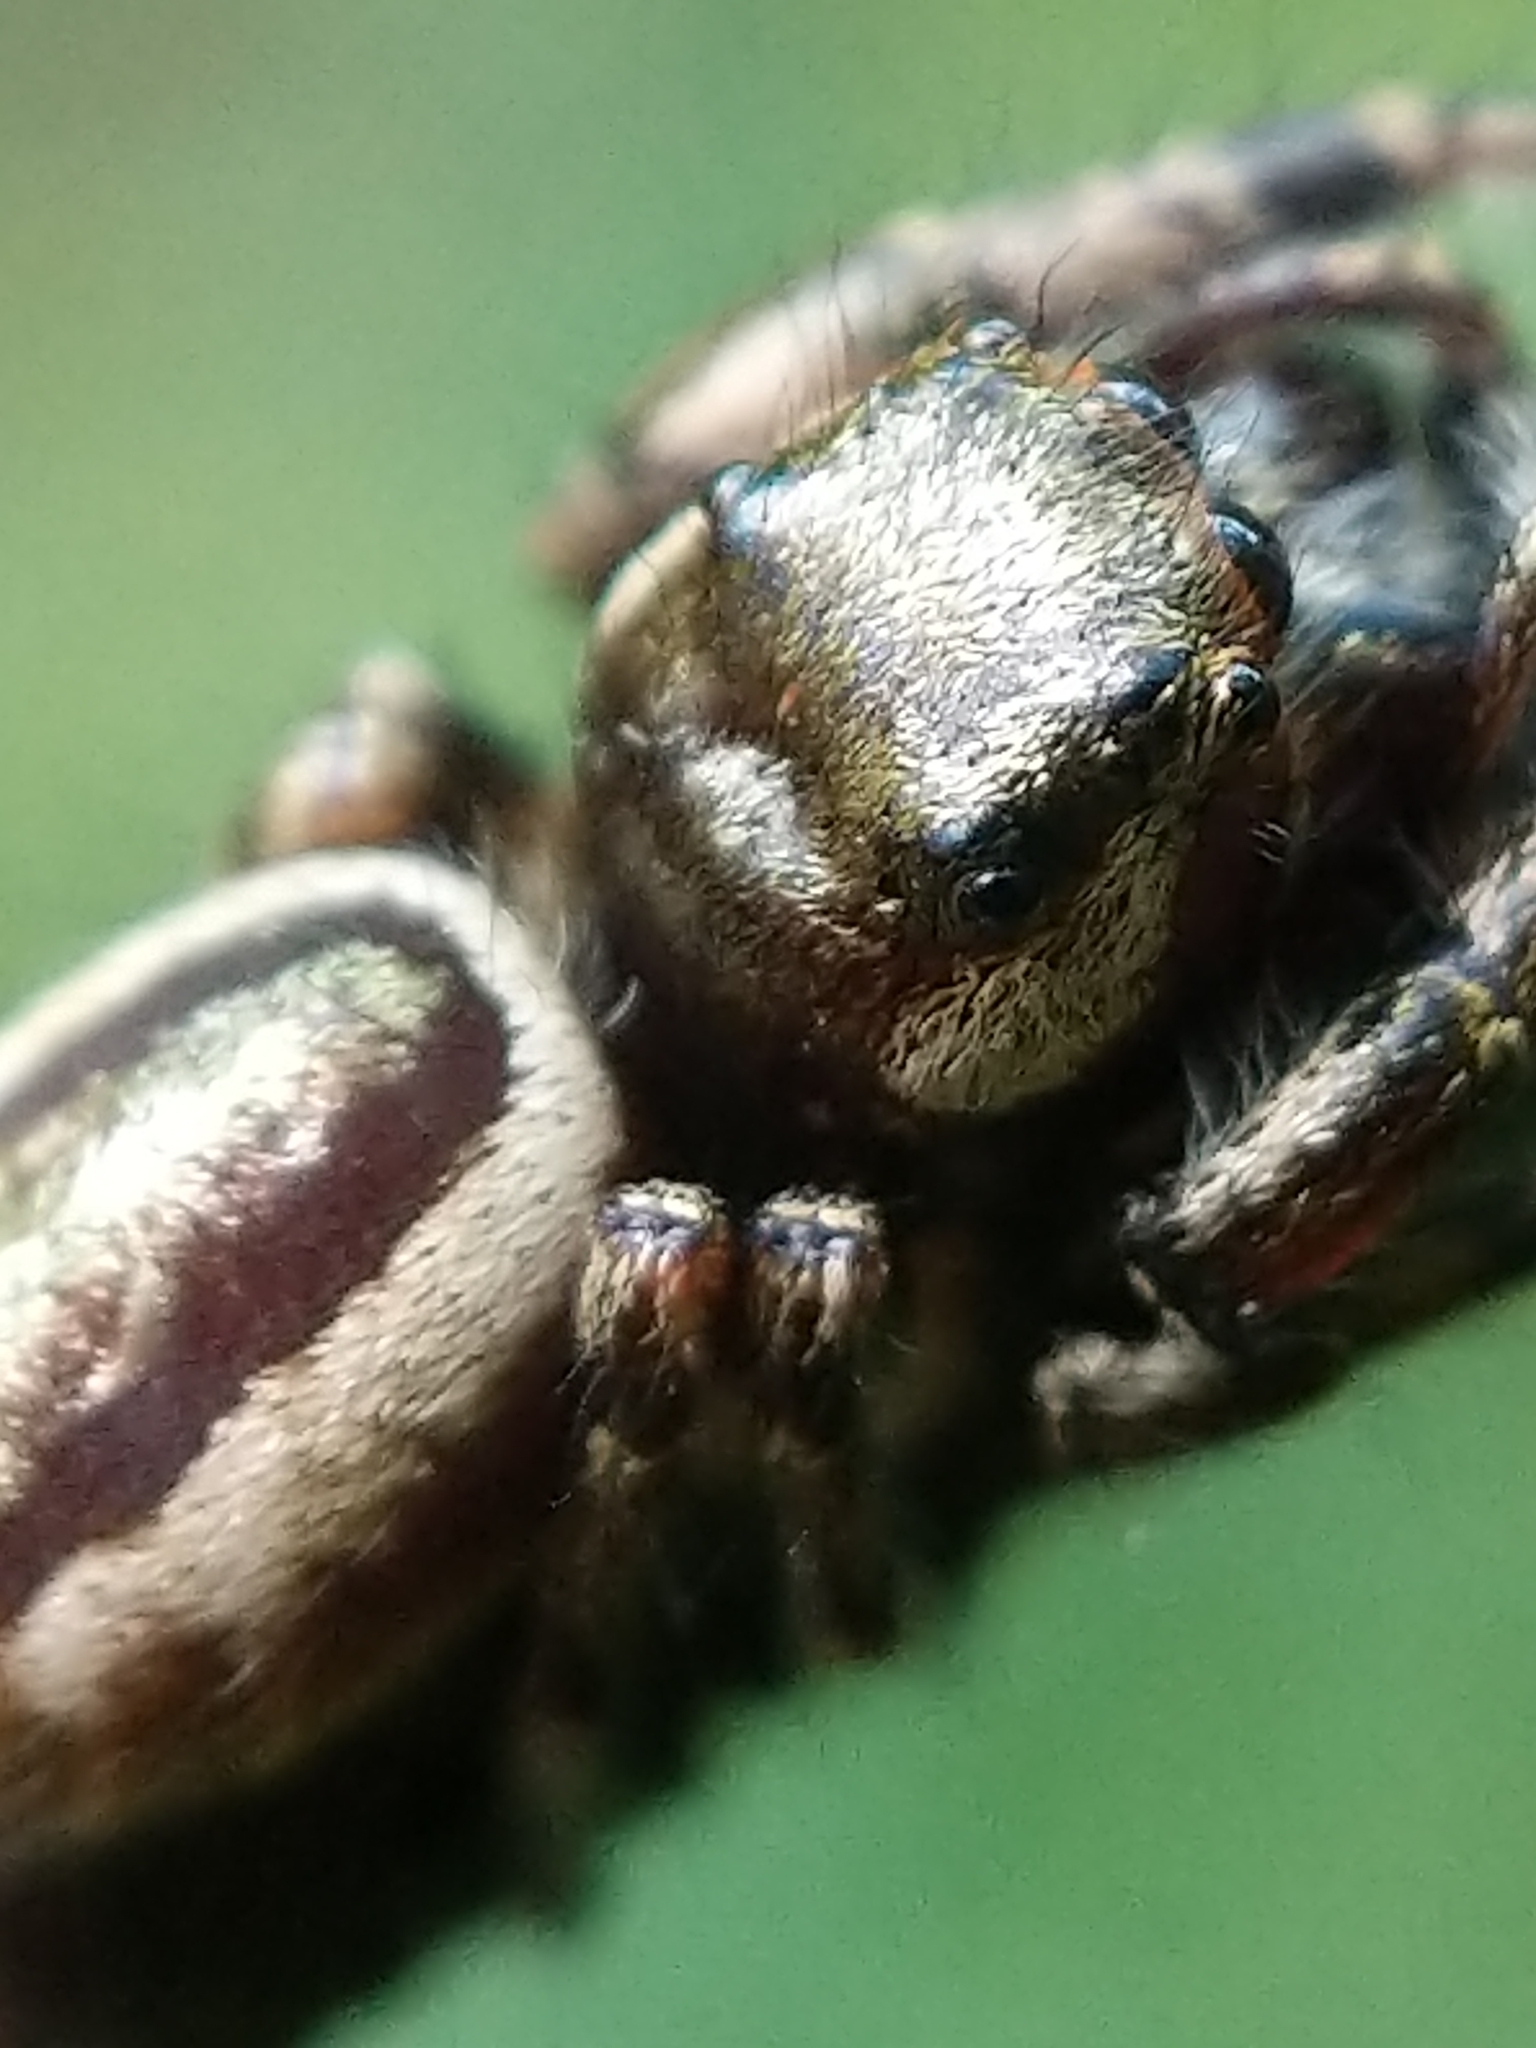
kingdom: Animalia
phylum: Arthropoda
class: Arachnida
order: Araneae
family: Salticidae
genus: Eris
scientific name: Eris militaris
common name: Bronze jumper
